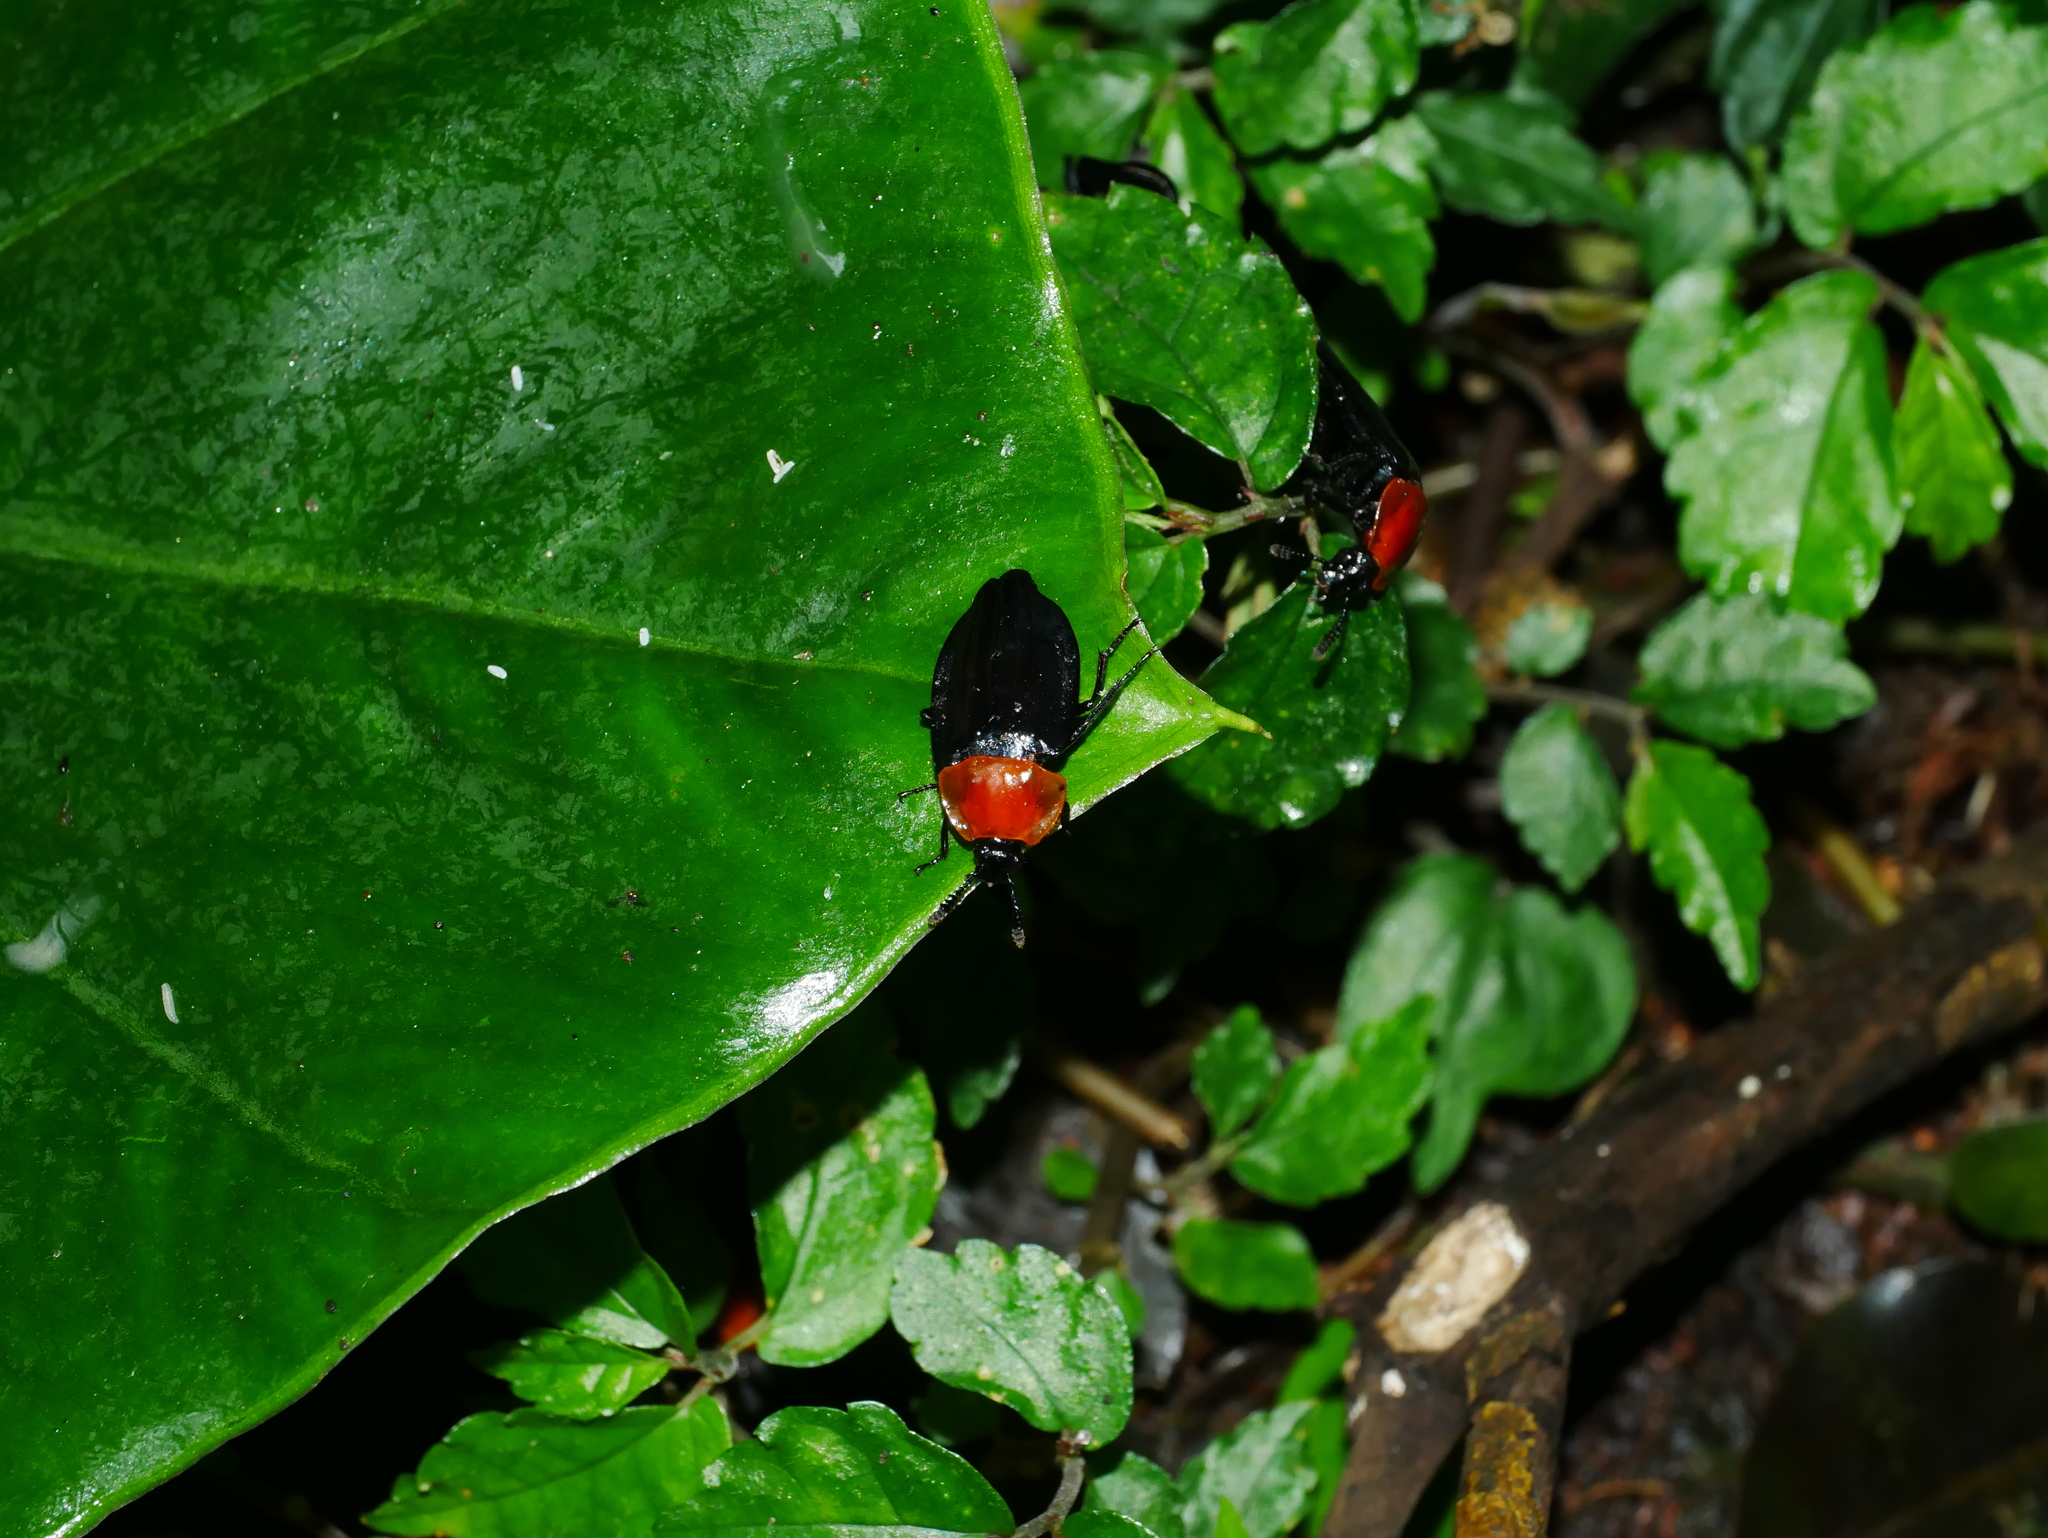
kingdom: Animalia
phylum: Arthropoda
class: Insecta
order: Coleoptera
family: Staphylinidae
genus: Necrophila
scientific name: Necrophila cyaneocephala
